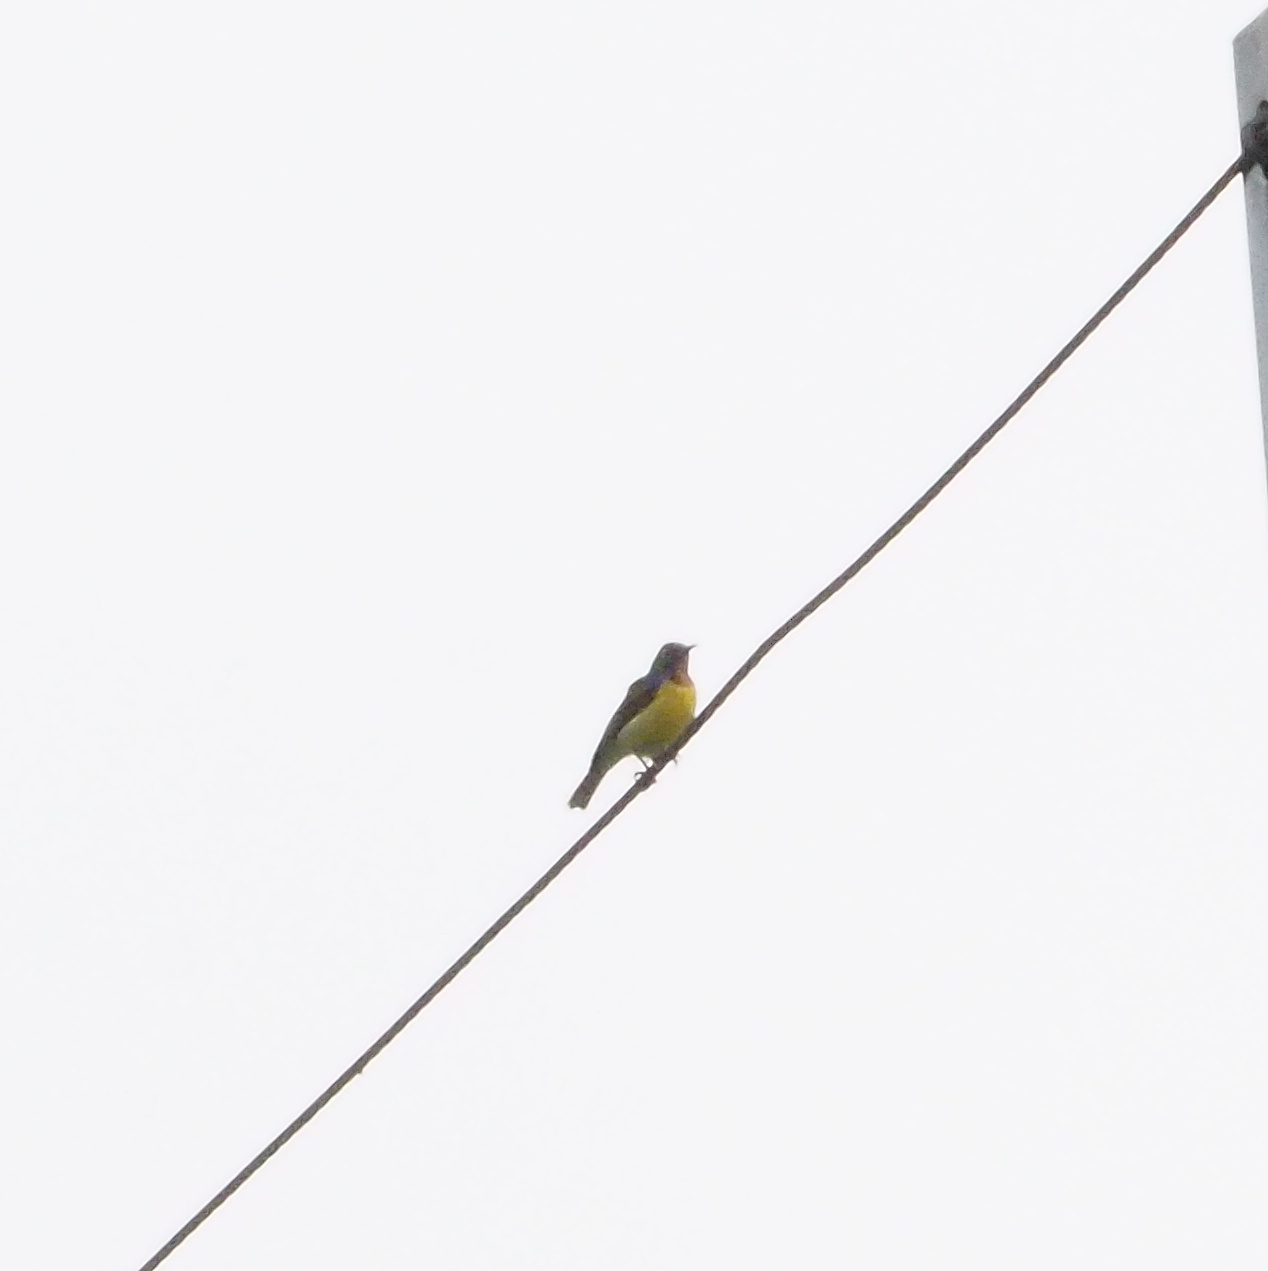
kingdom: Animalia
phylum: Chordata
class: Aves
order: Passeriformes
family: Nectariniidae
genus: Anthreptes
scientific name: Anthreptes malacensis
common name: Brown-throated sunbird
